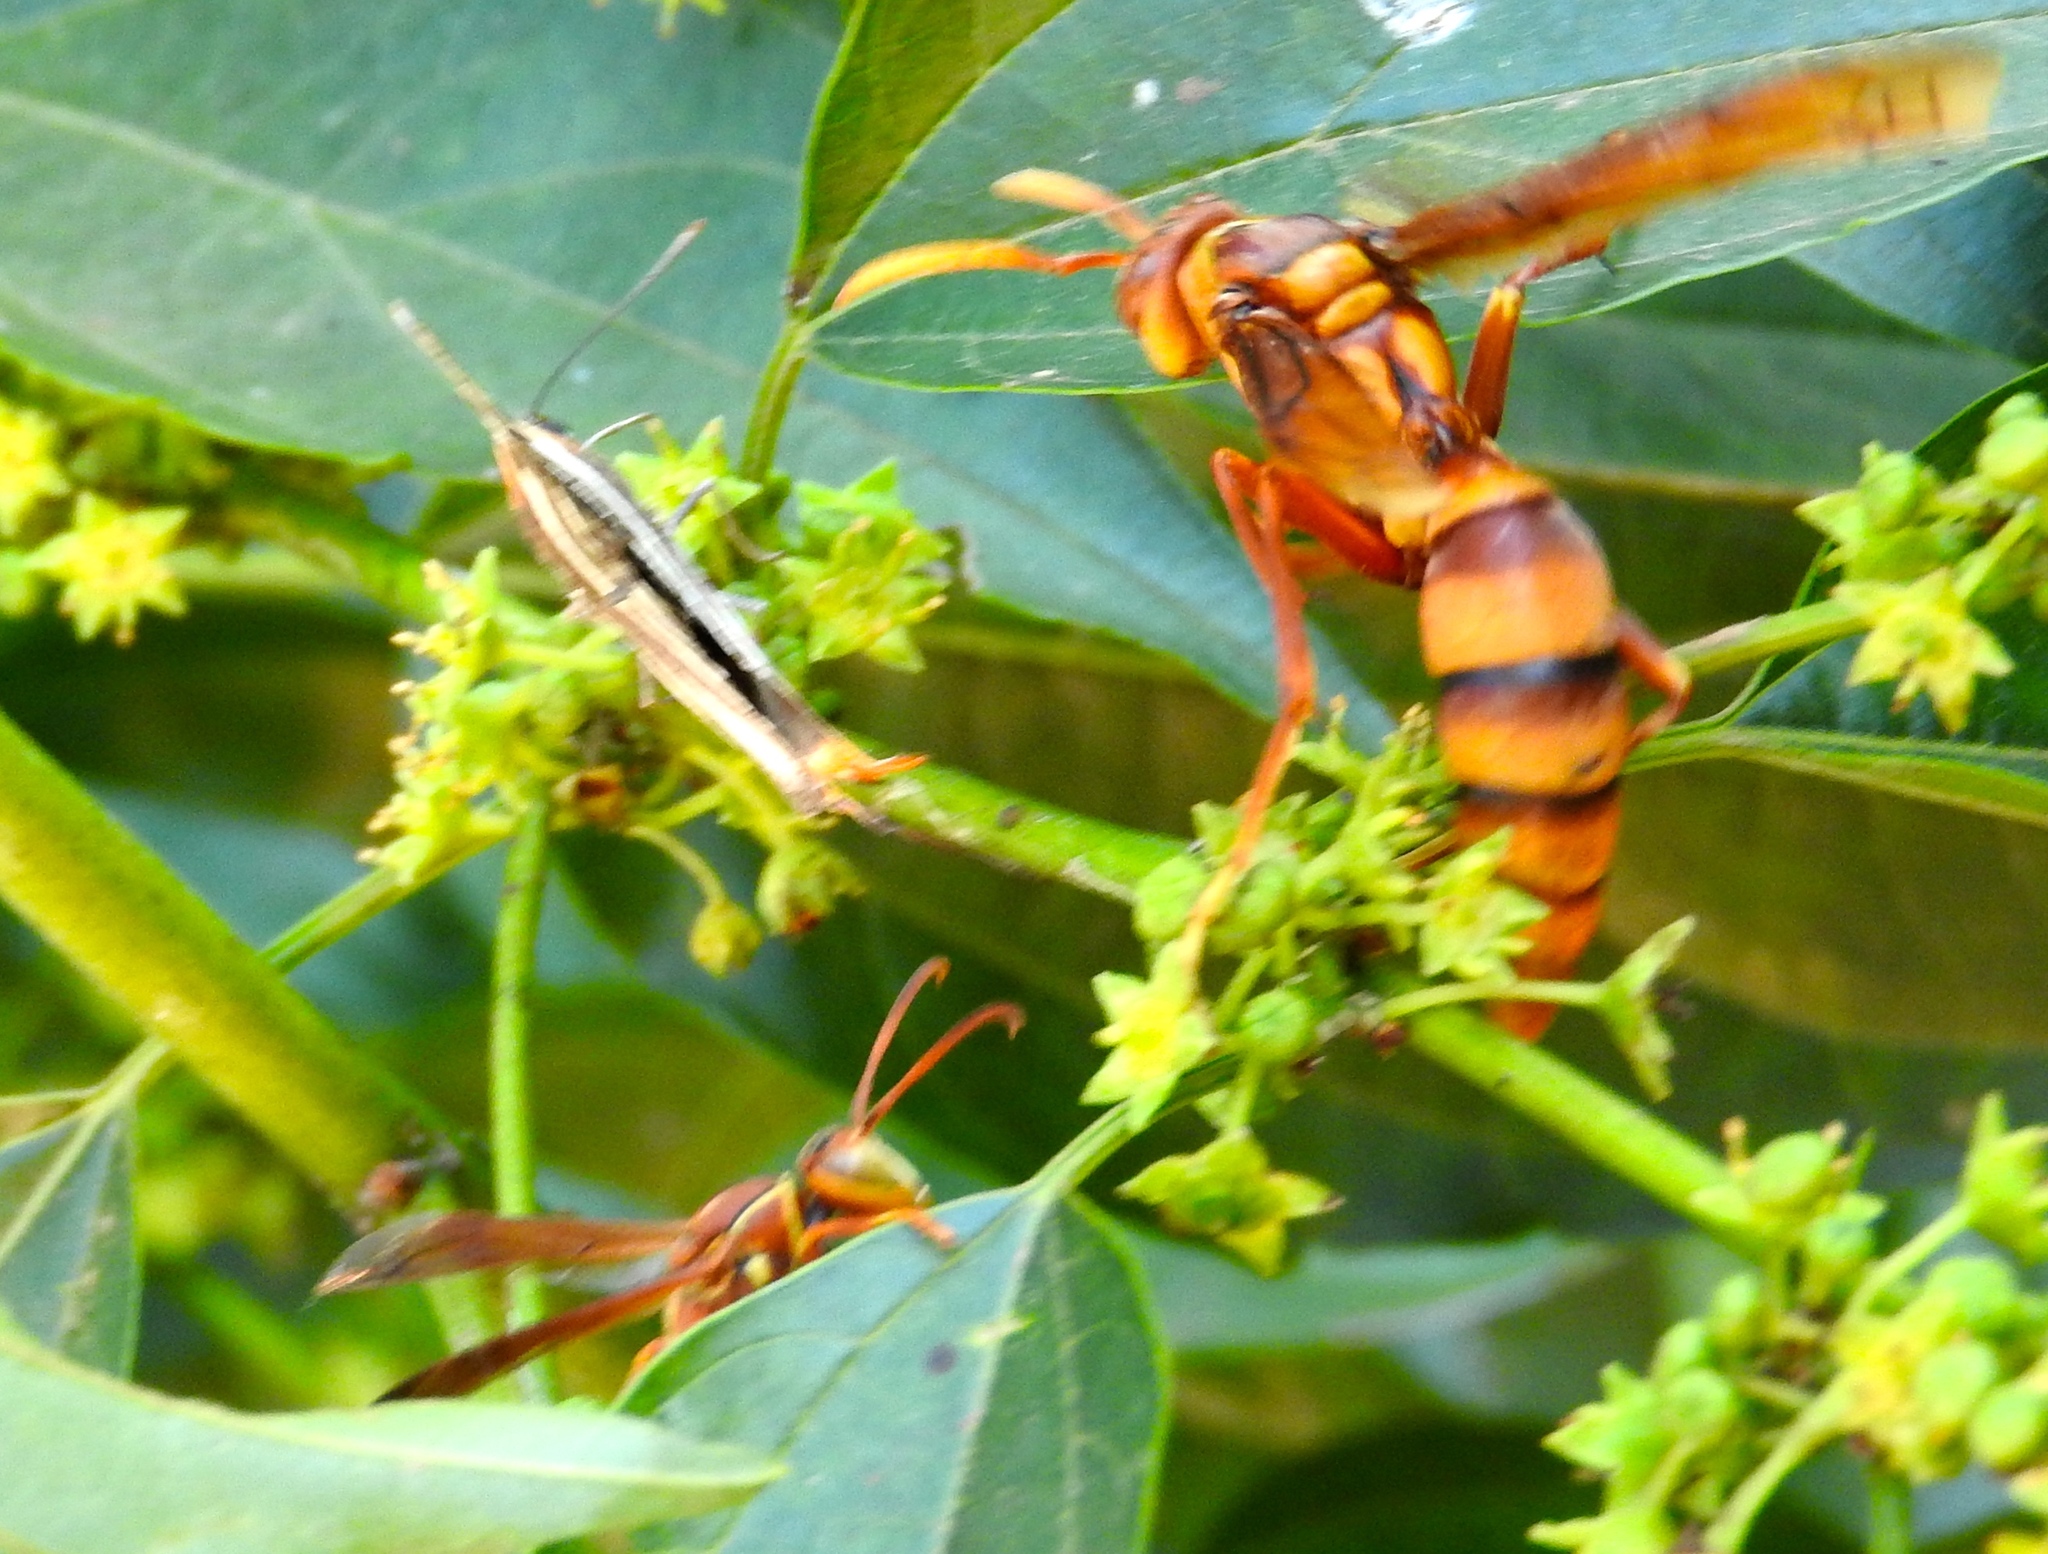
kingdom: Plantae
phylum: Tracheophyta
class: Magnoliopsida
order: Rosales
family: Rhamnaceae
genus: Colubrina
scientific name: Colubrina triflora
